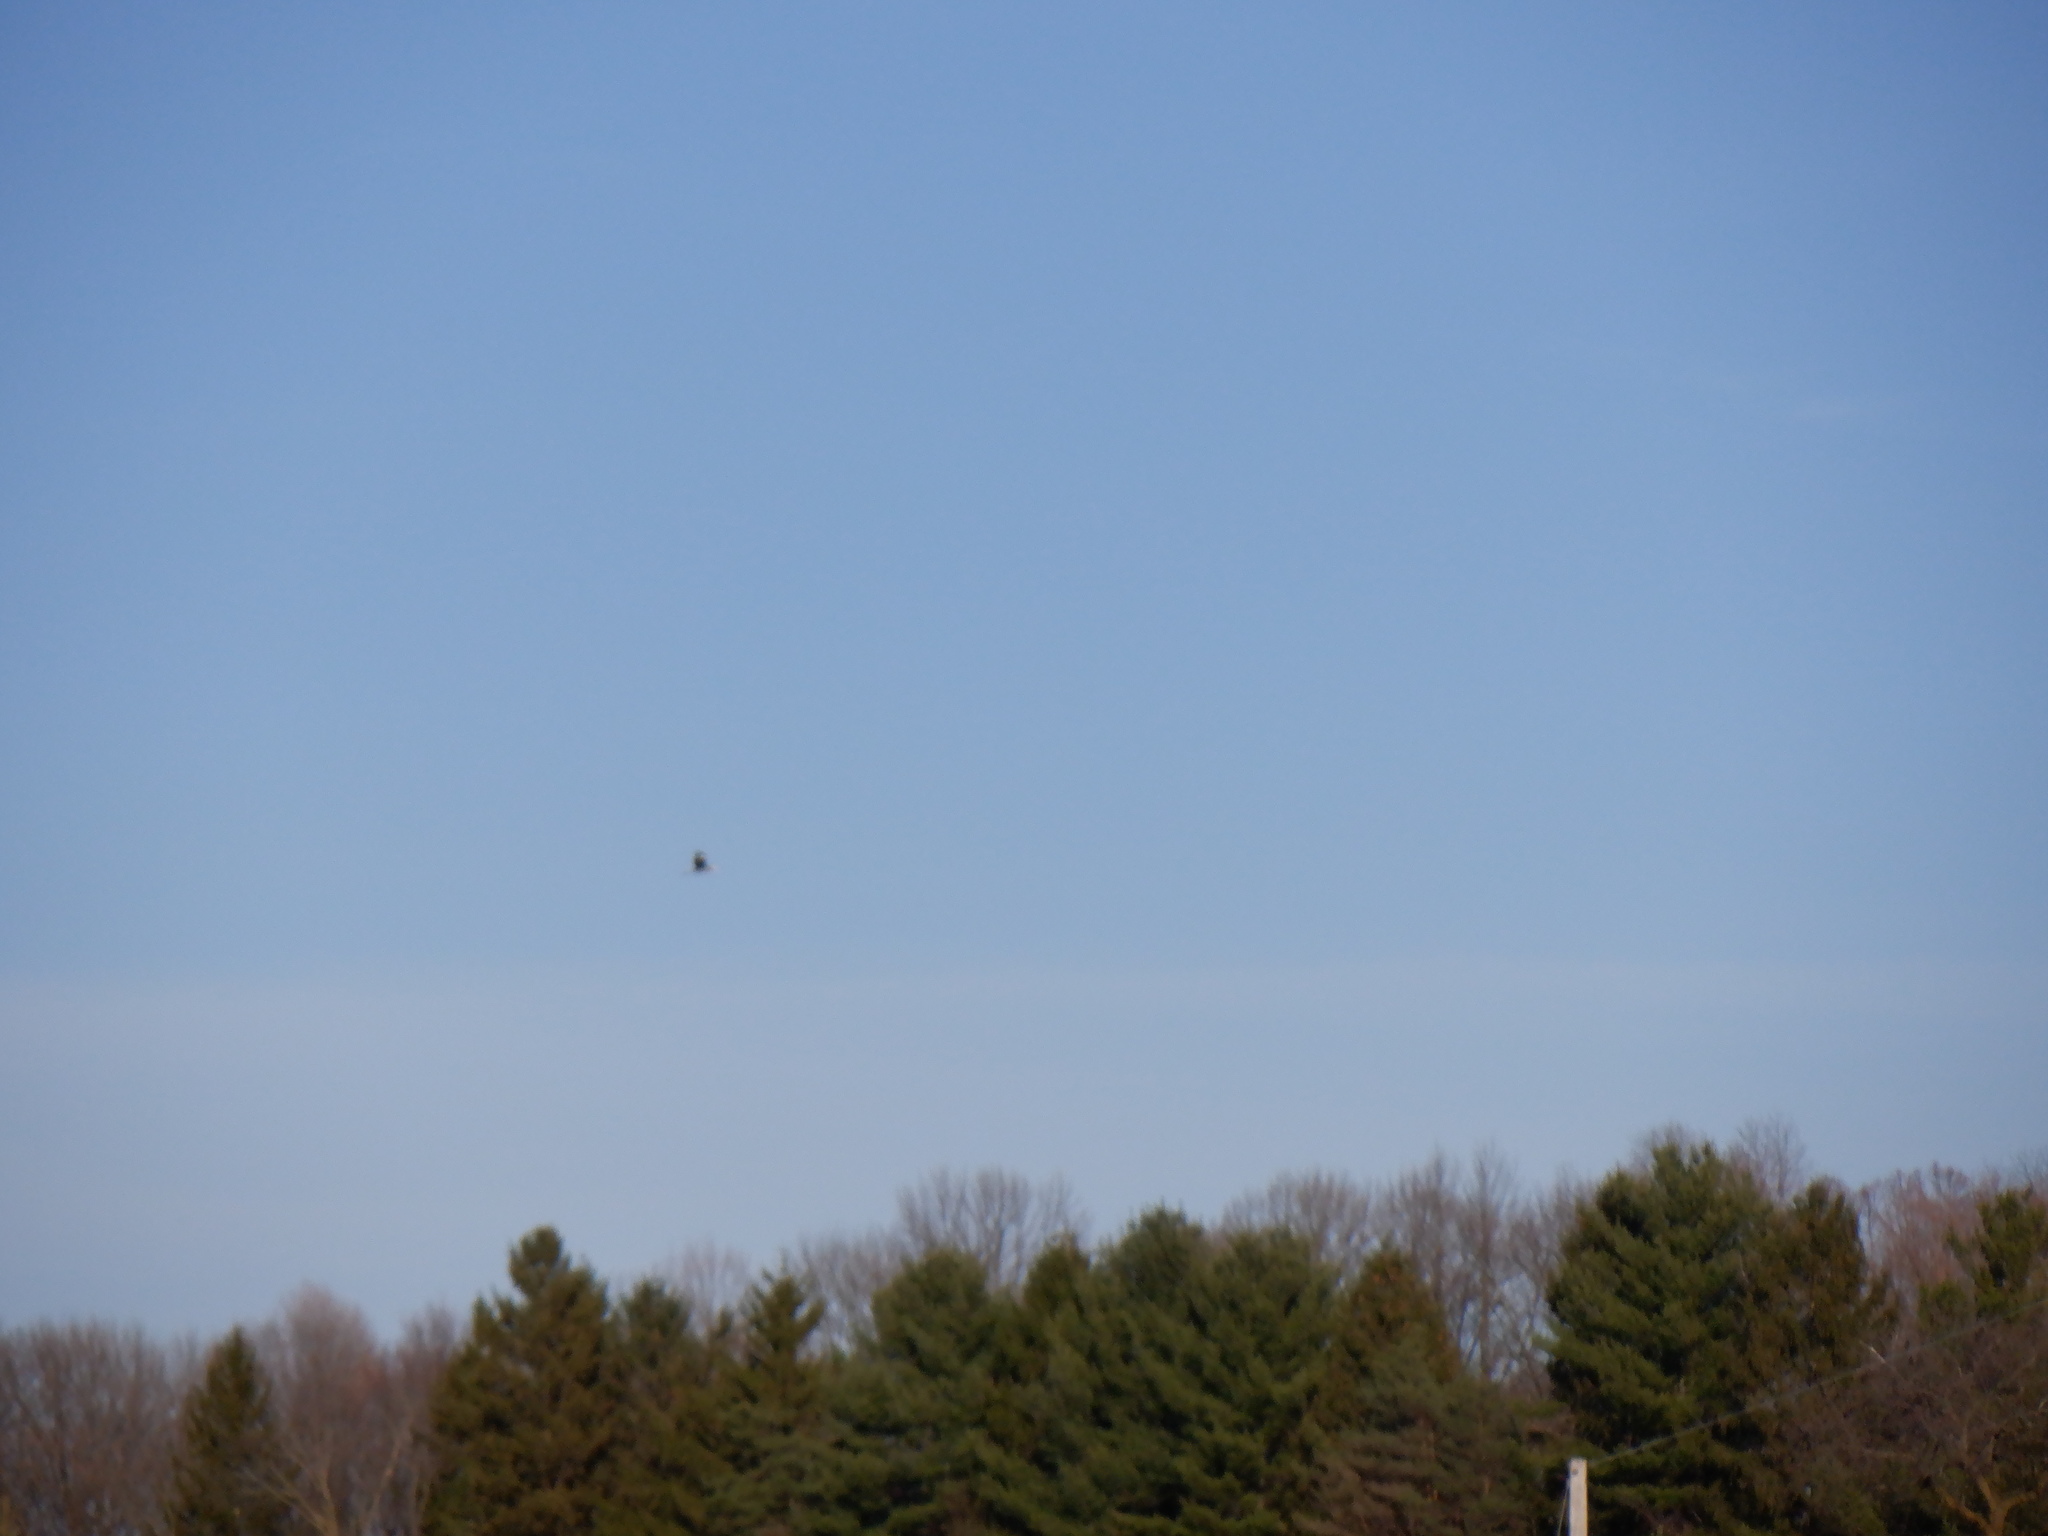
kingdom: Animalia
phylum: Chordata
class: Aves
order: Pelecaniformes
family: Ardeidae
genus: Ardea
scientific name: Ardea herodias
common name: Great blue heron
